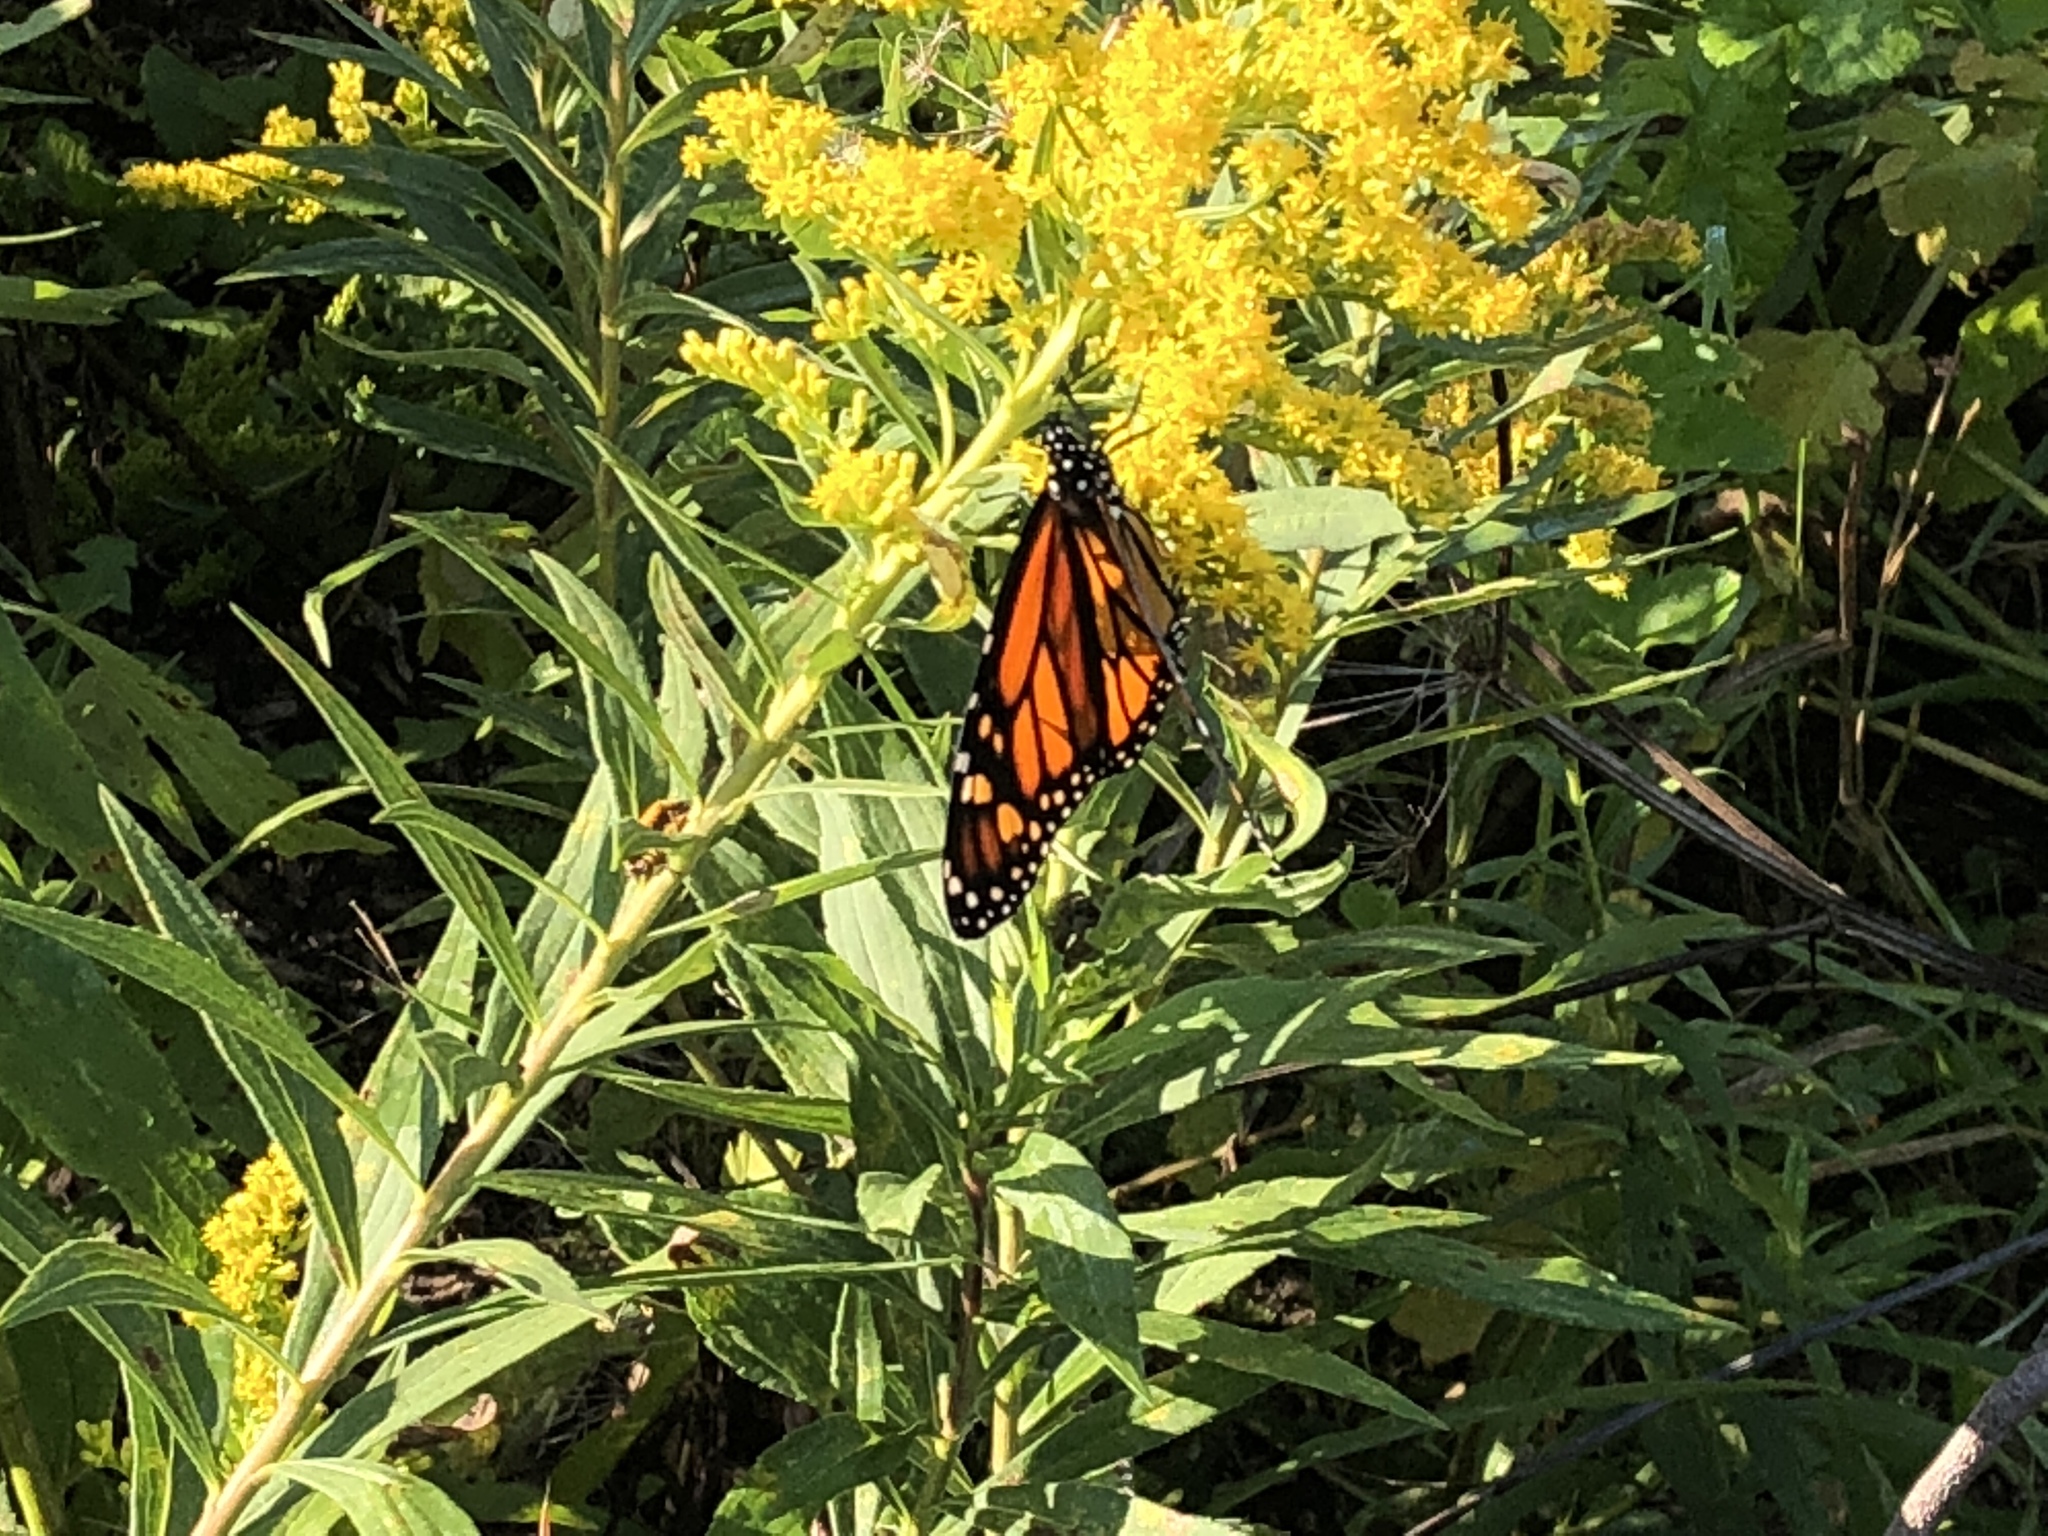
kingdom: Animalia
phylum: Arthropoda
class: Insecta
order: Lepidoptera
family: Nymphalidae
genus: Danaus
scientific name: Danaus plexippus
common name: Monarch
